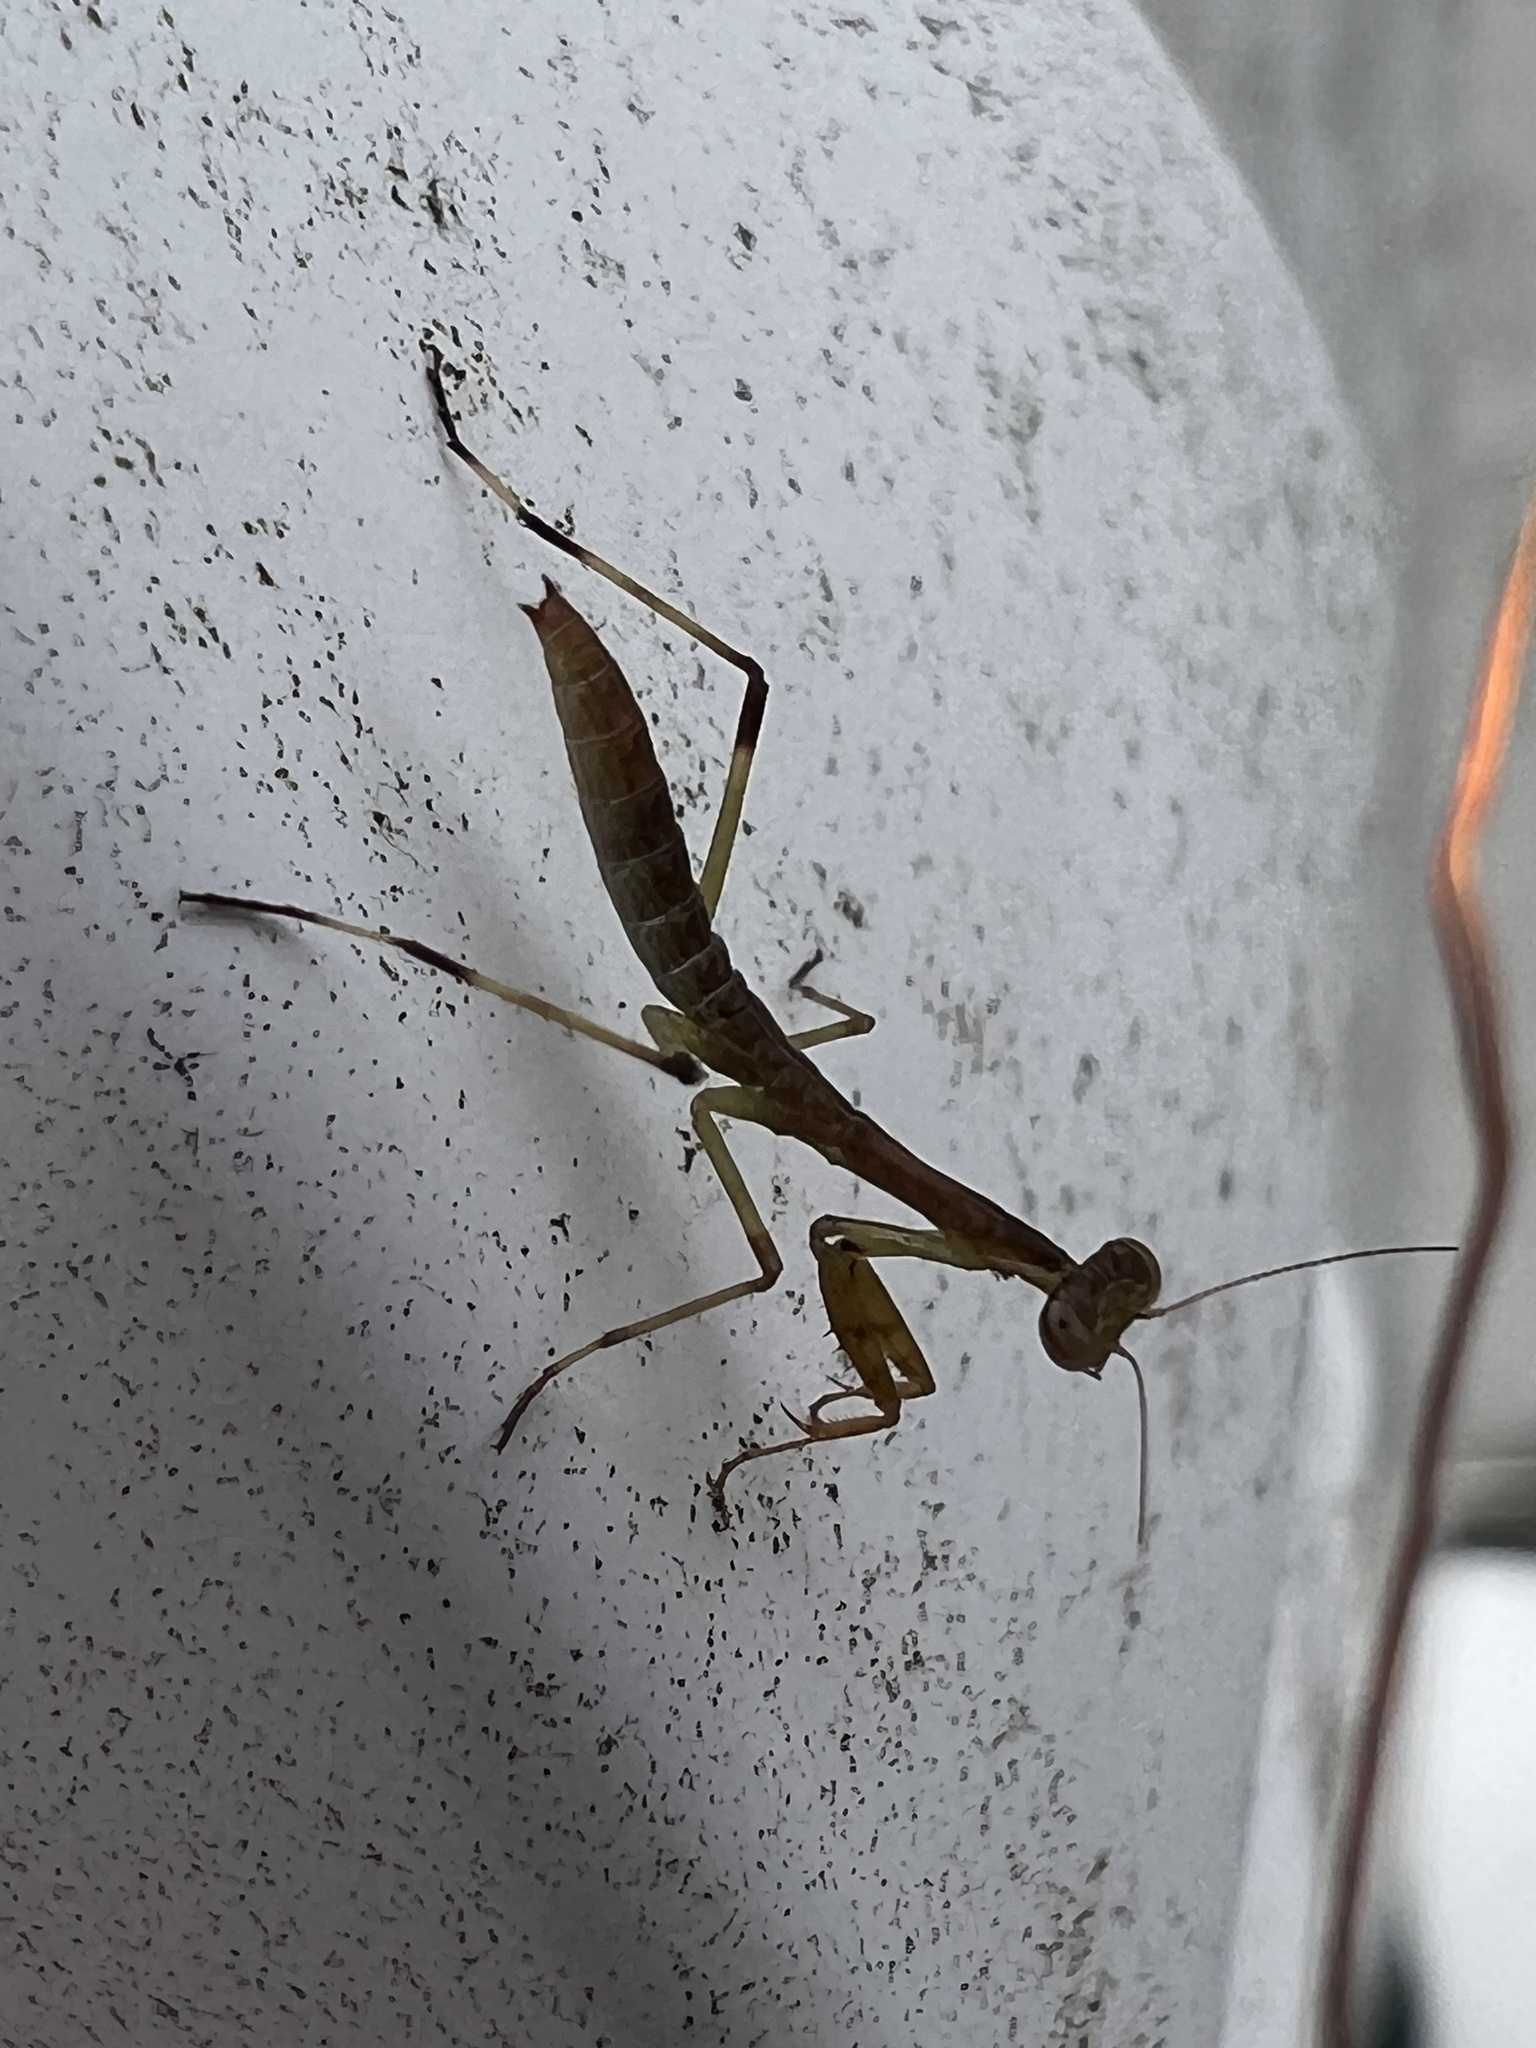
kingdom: Animalia
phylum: Arthropoda
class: Insecta
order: Mantodea
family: Mantidae
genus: Stagmomantis
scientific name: Stagmomantis carolina
